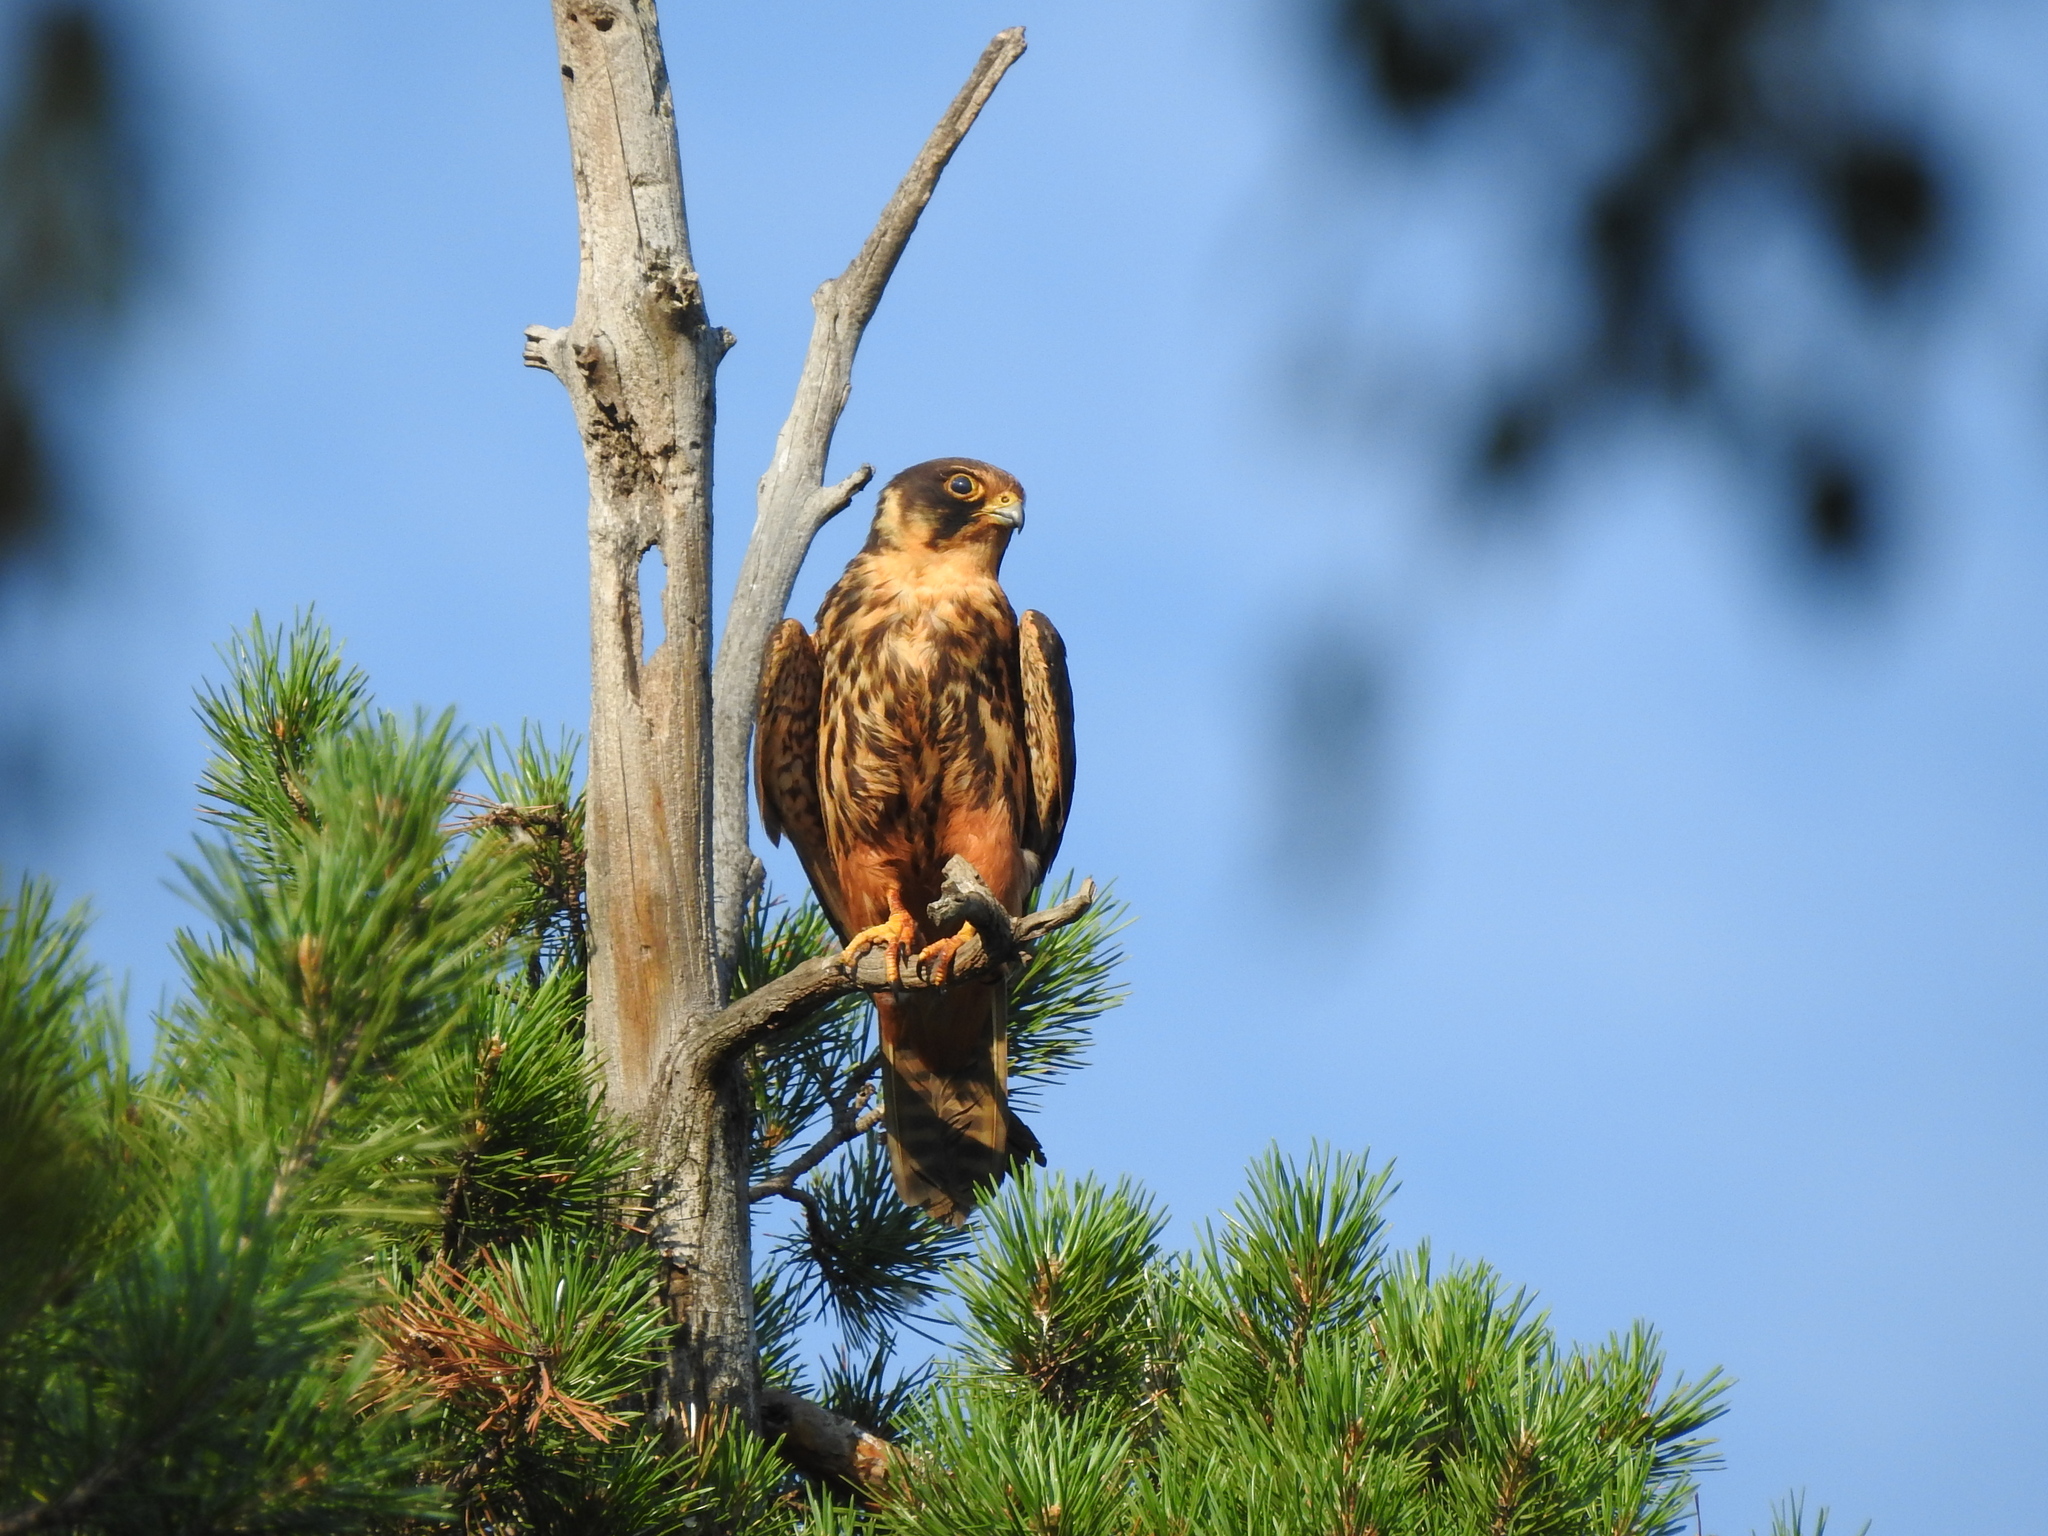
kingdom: Animalia
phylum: Chordata
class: Aves
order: Falconiformes
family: Falconidae
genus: Falco
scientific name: Falco subbuteo
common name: Eurasian hobby
